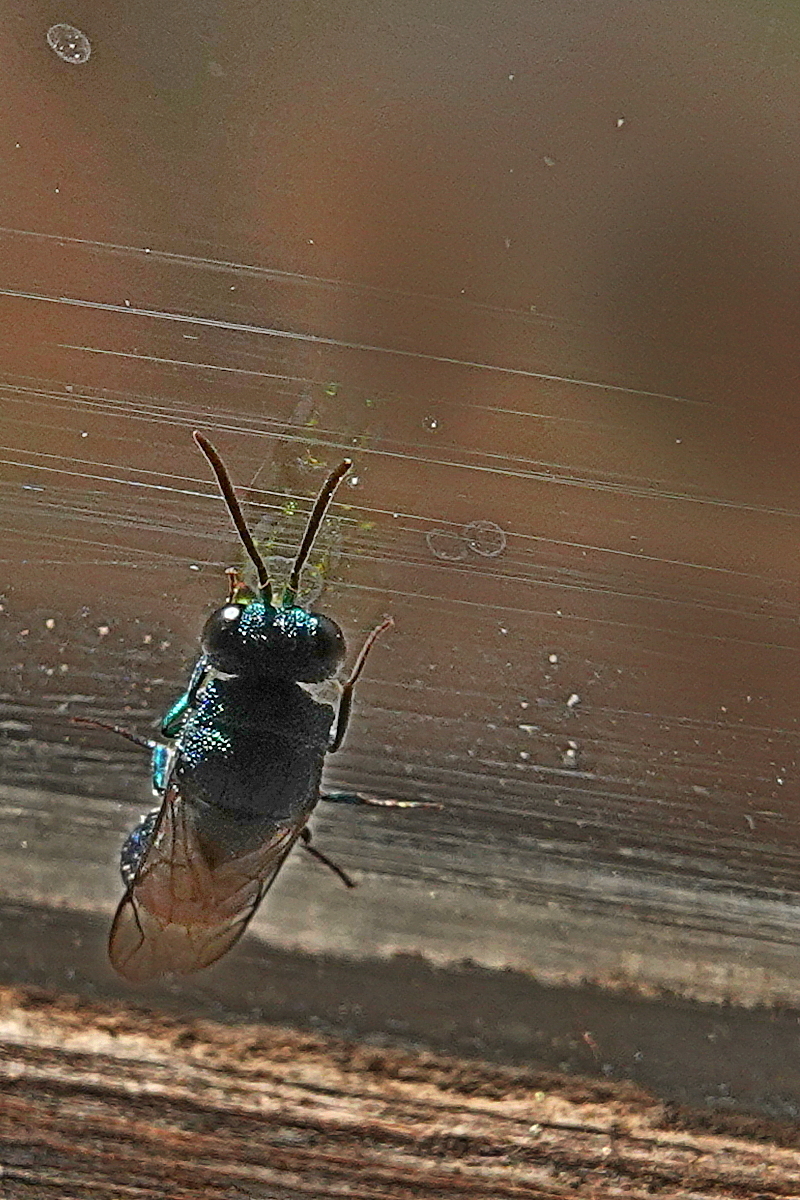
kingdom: Animalia
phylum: Arthropoda
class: Insecta
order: Hymenoptera
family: Chrysididae
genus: Primeuchroeus
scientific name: Primeuchroeus
